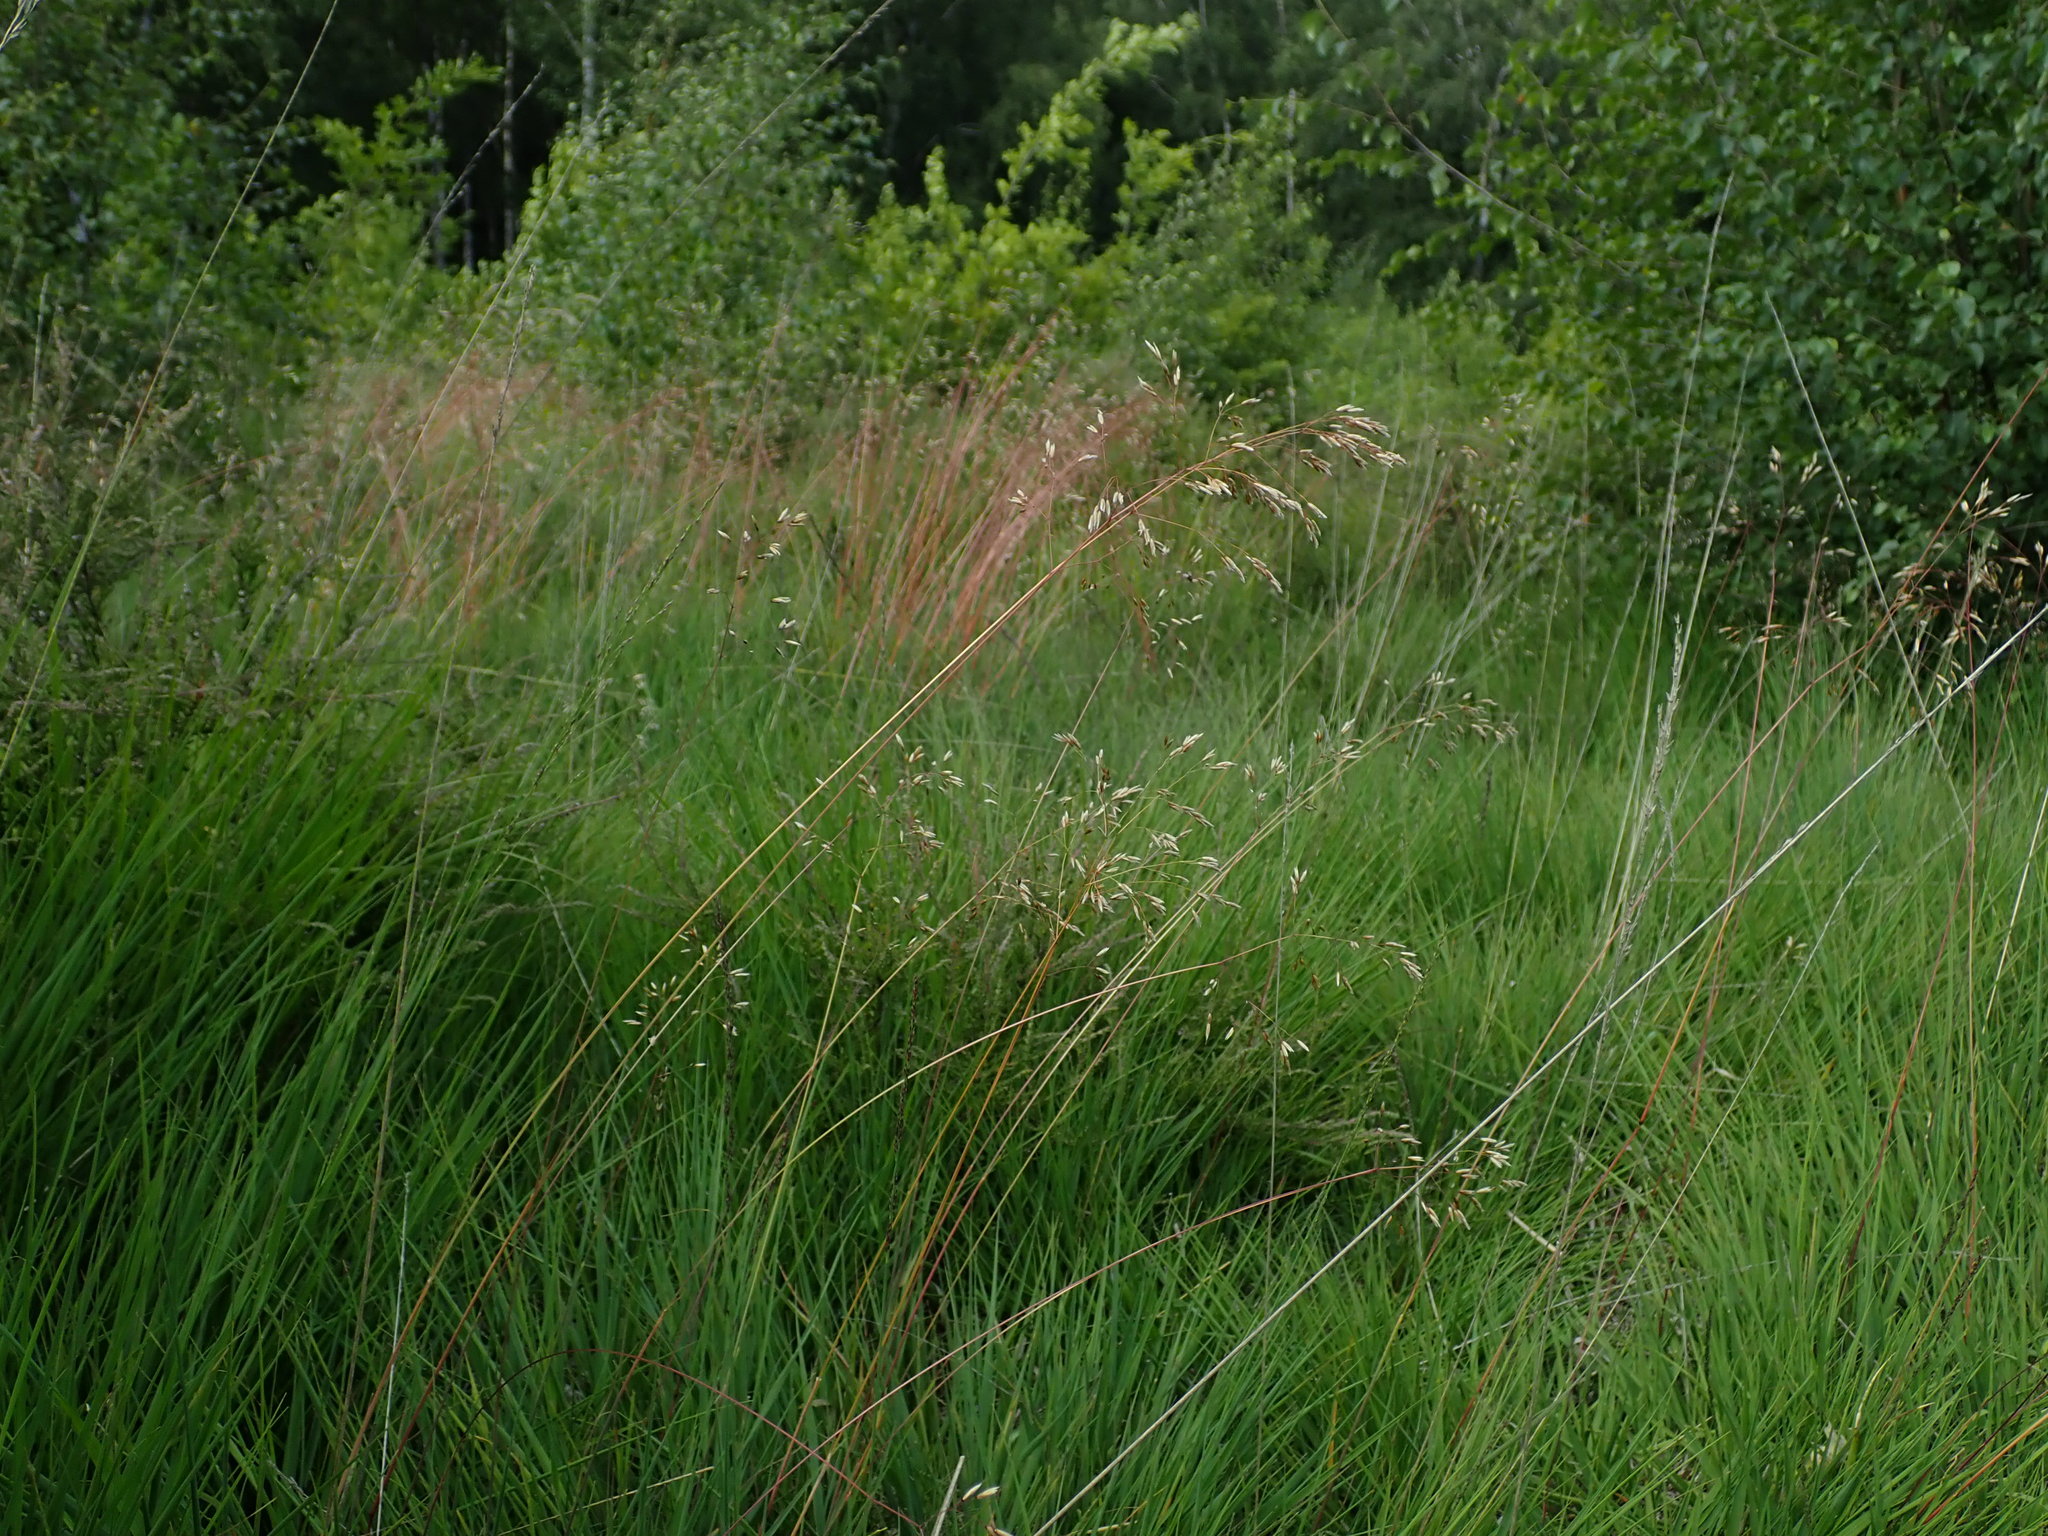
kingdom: Plantae
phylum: Tracheophyta
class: Liliopsida
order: Poales
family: Poaceae
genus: Avenella
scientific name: Avenella flexuosa
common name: Wavy hairgrass
